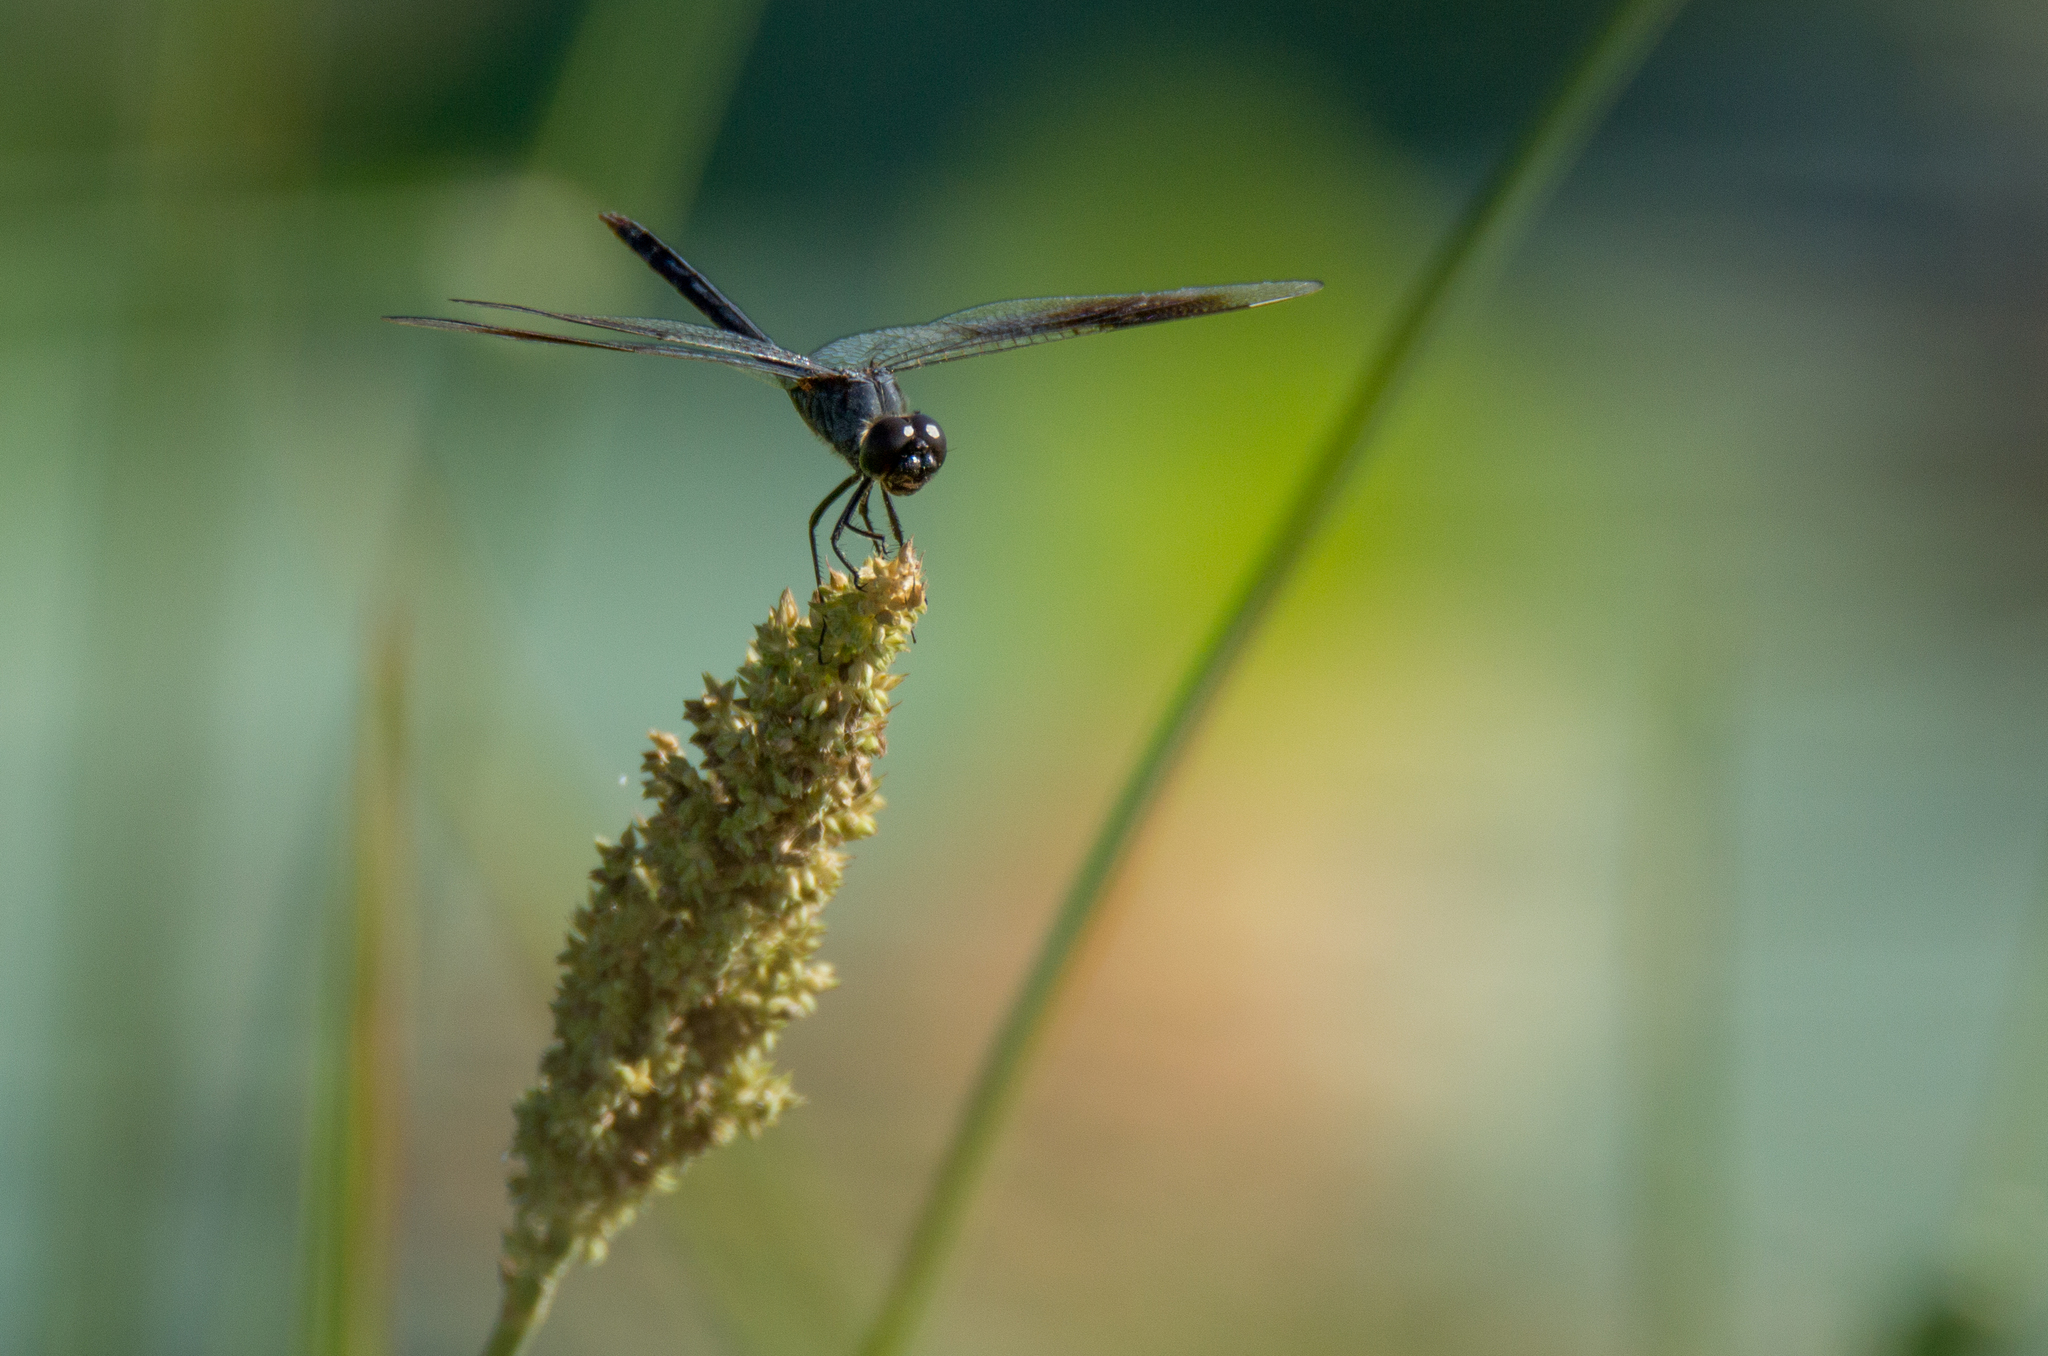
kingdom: Animalia
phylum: Arthropoda
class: Insecta
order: Odonata
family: Libellulidae
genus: Brachymesia
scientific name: Brachymesia gravida
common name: Four-spotted pennant
